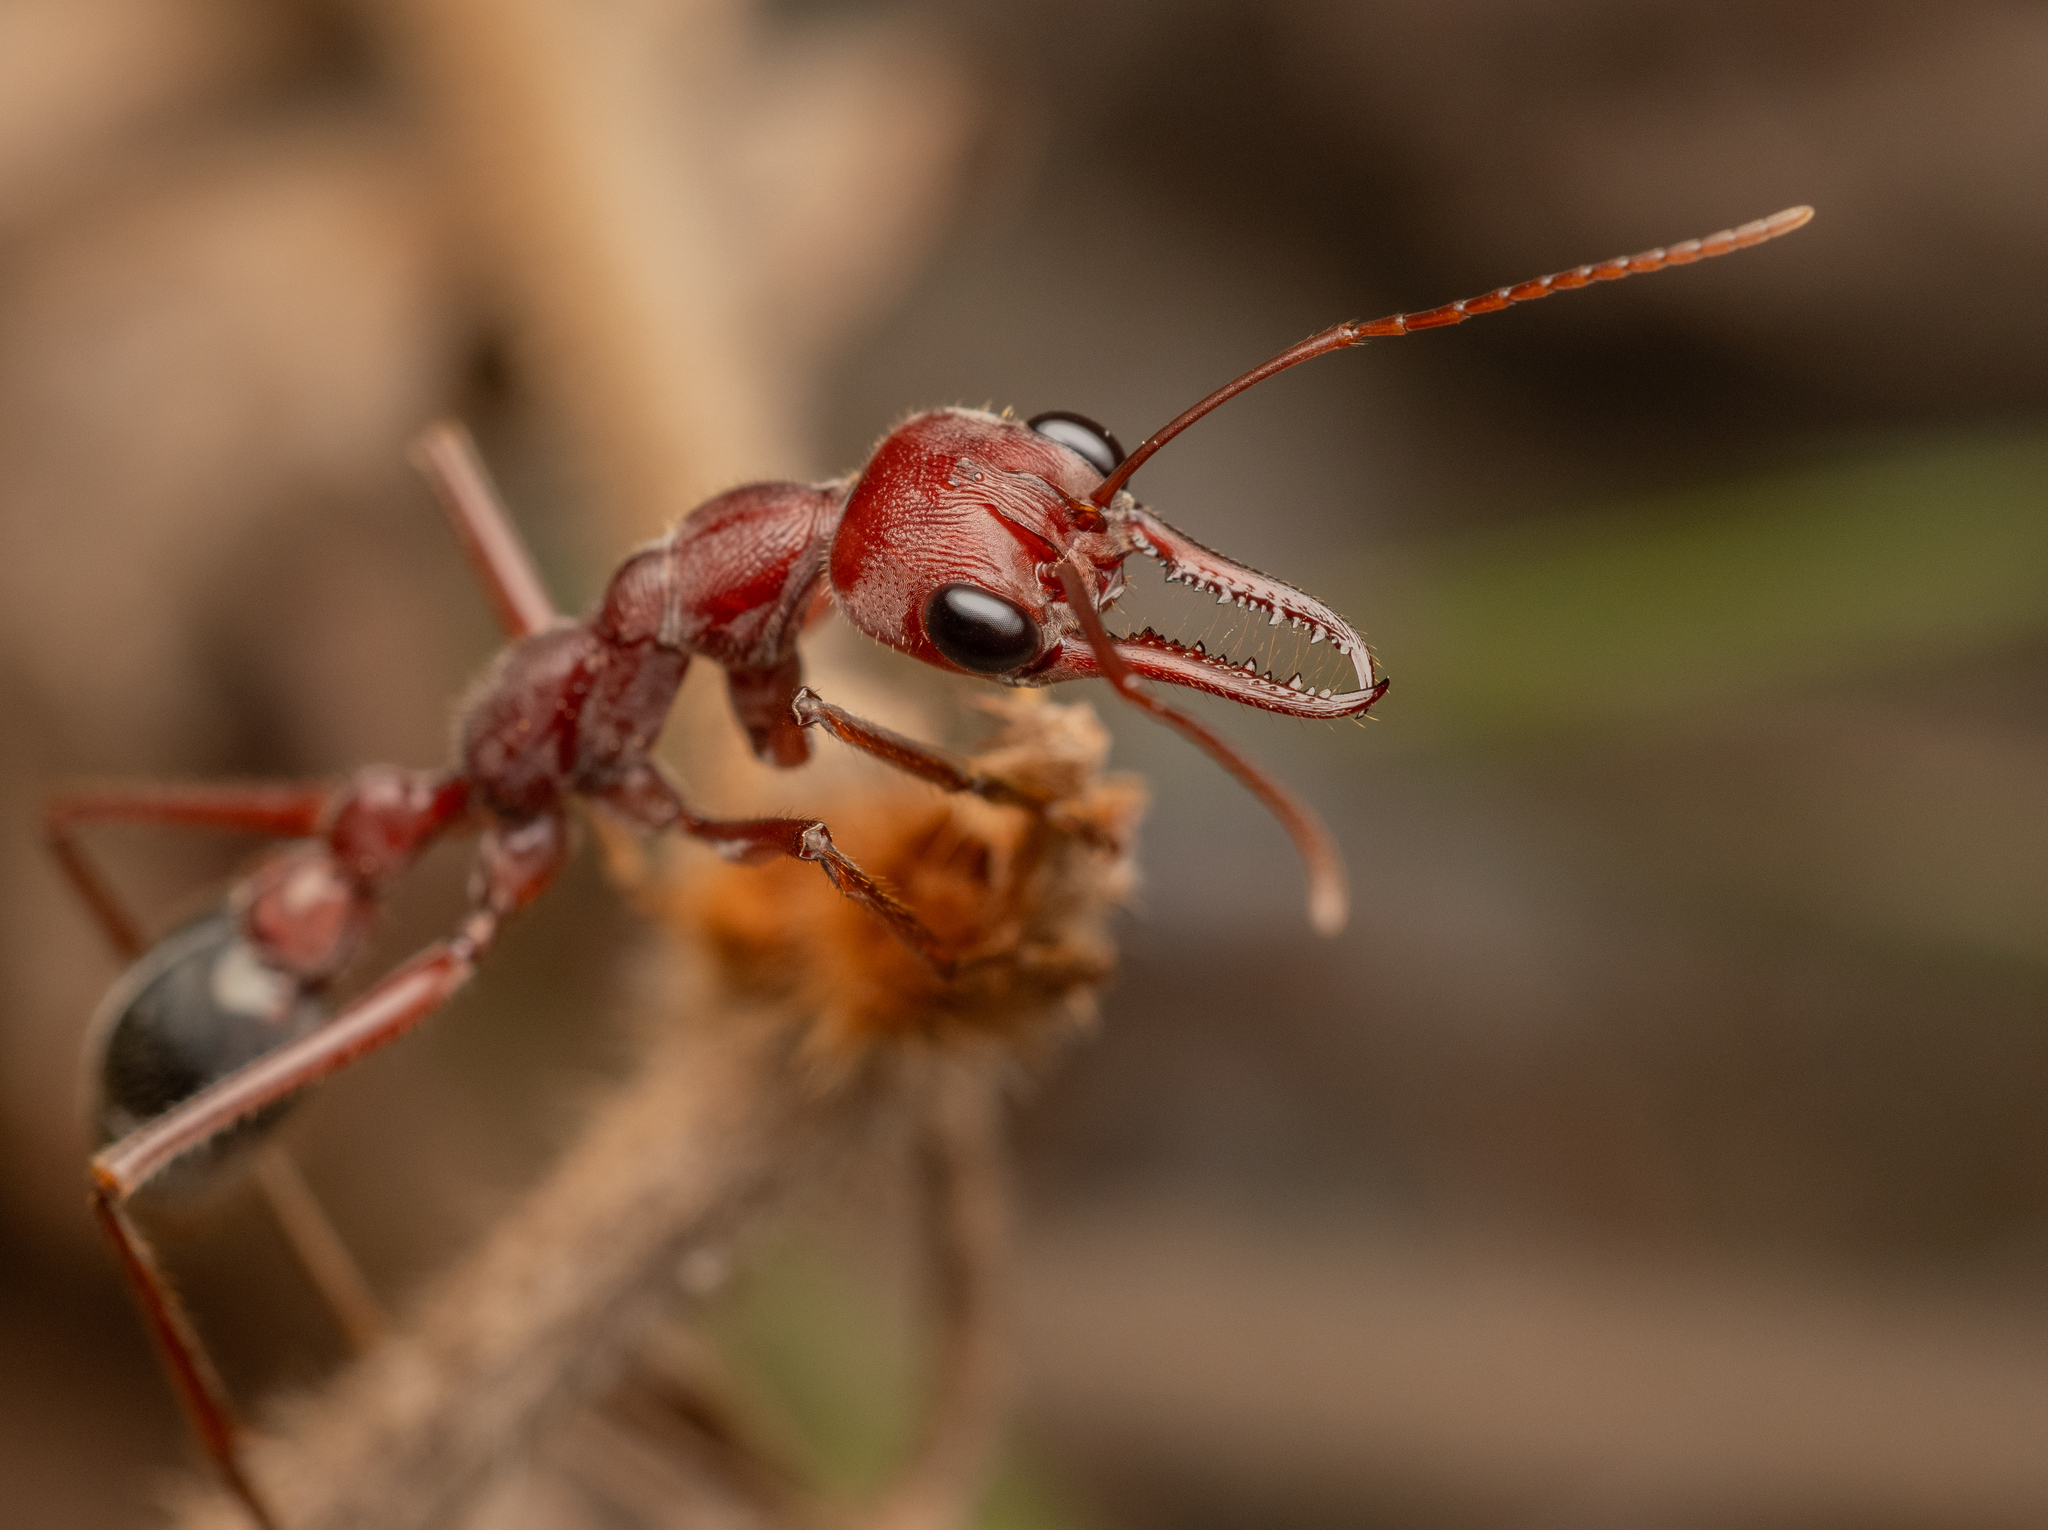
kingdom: Animalia
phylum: Arthropoda
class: Insecta
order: Hymenoptera
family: Formicidae
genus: Myrmecia
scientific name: Myrmecia brevinoda
